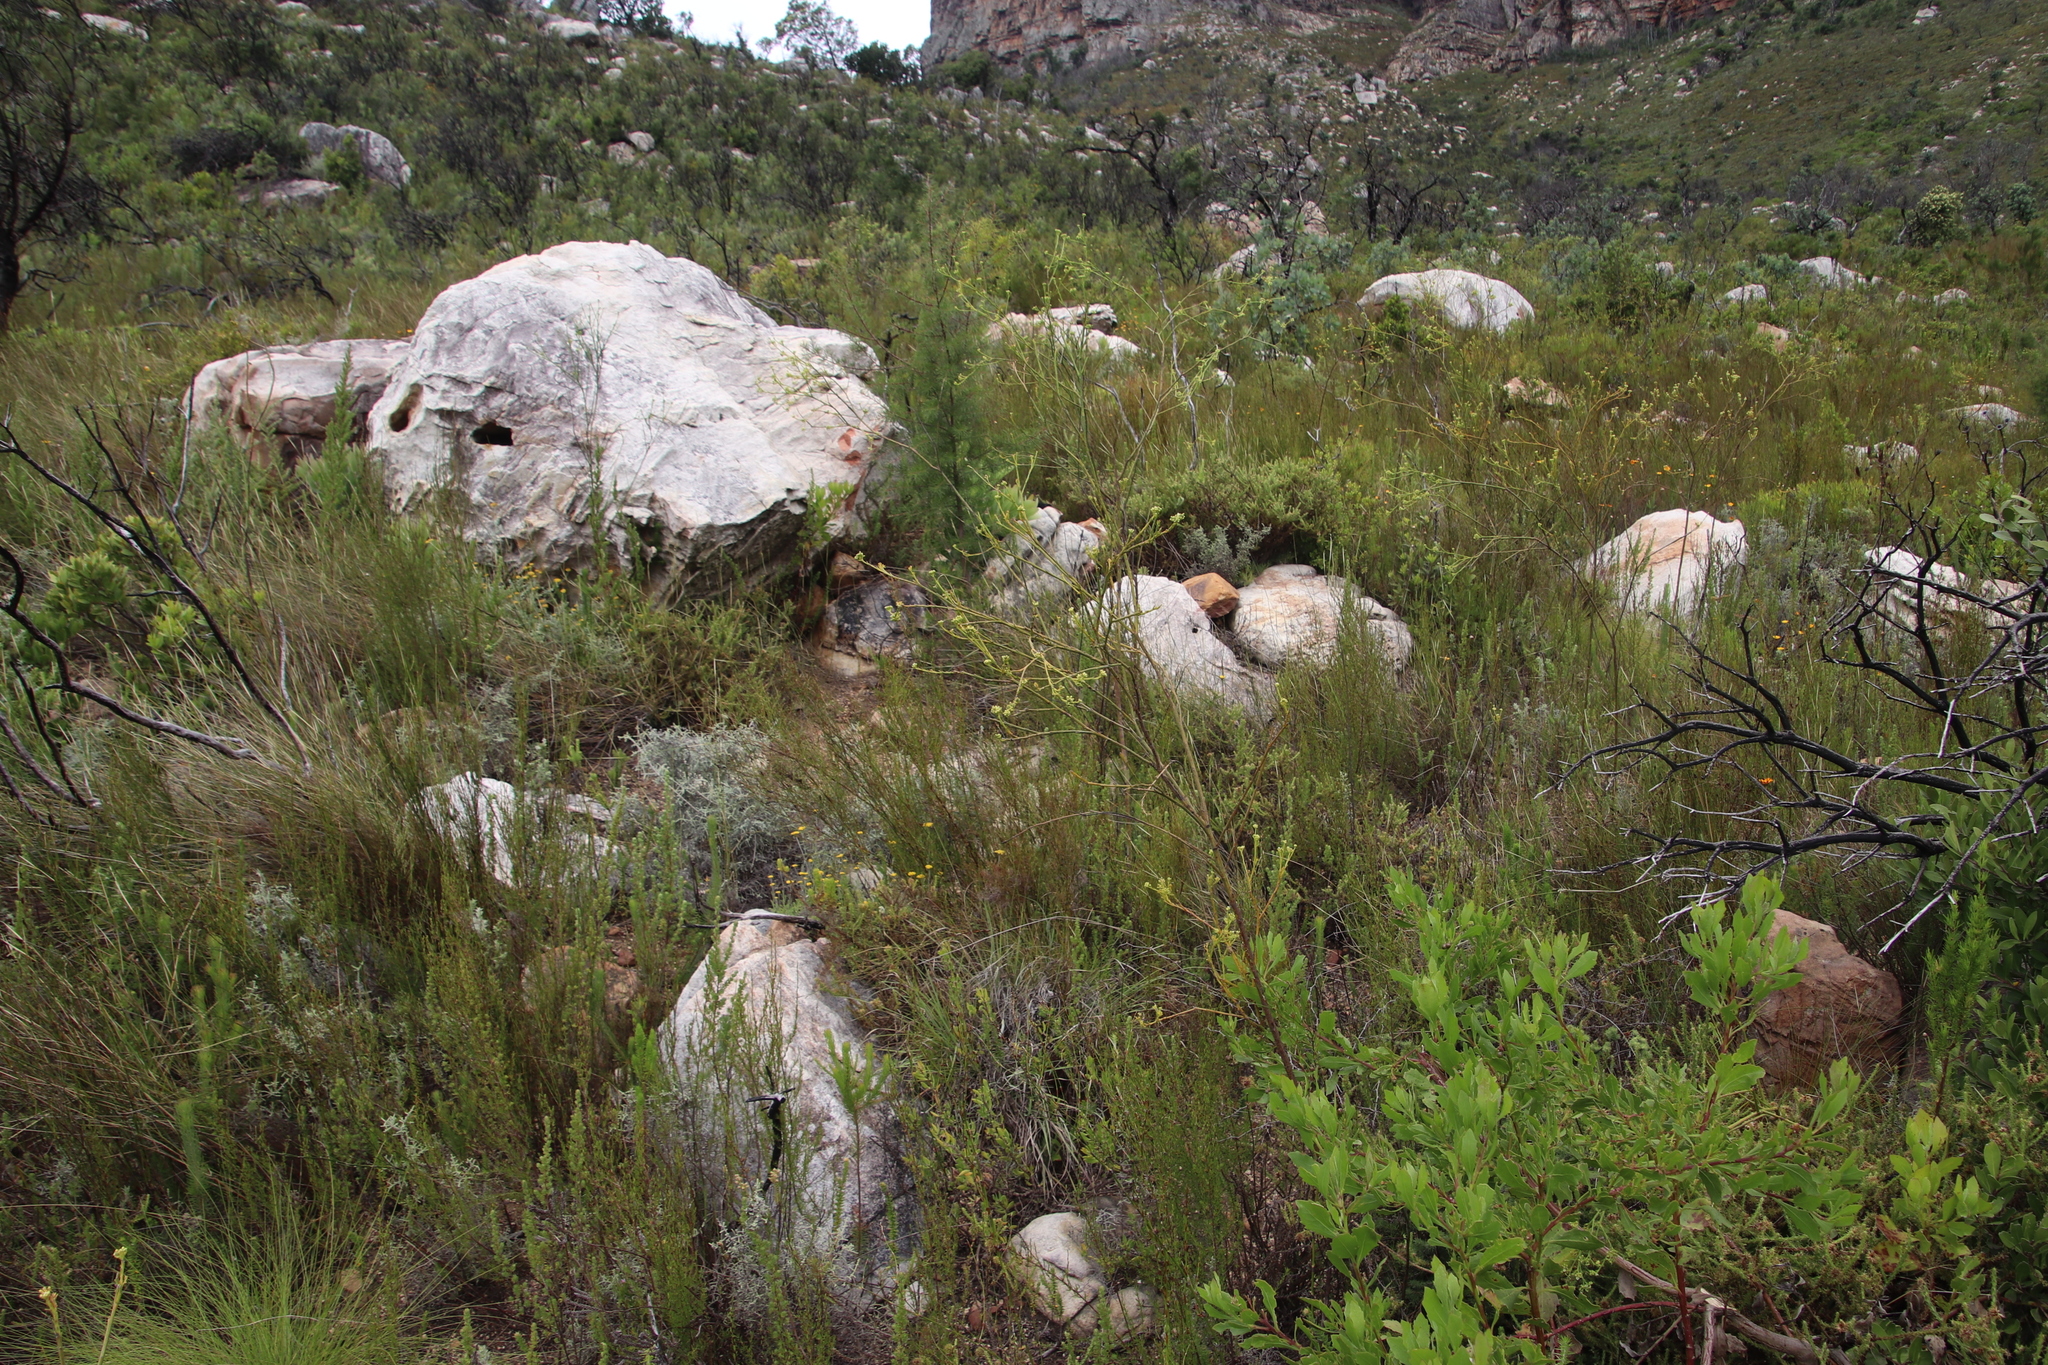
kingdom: Plantae
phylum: Tracheophyta
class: Magnoliopsida
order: Santalales
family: Thesiaceae
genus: Thesium
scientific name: Thesium strictum
